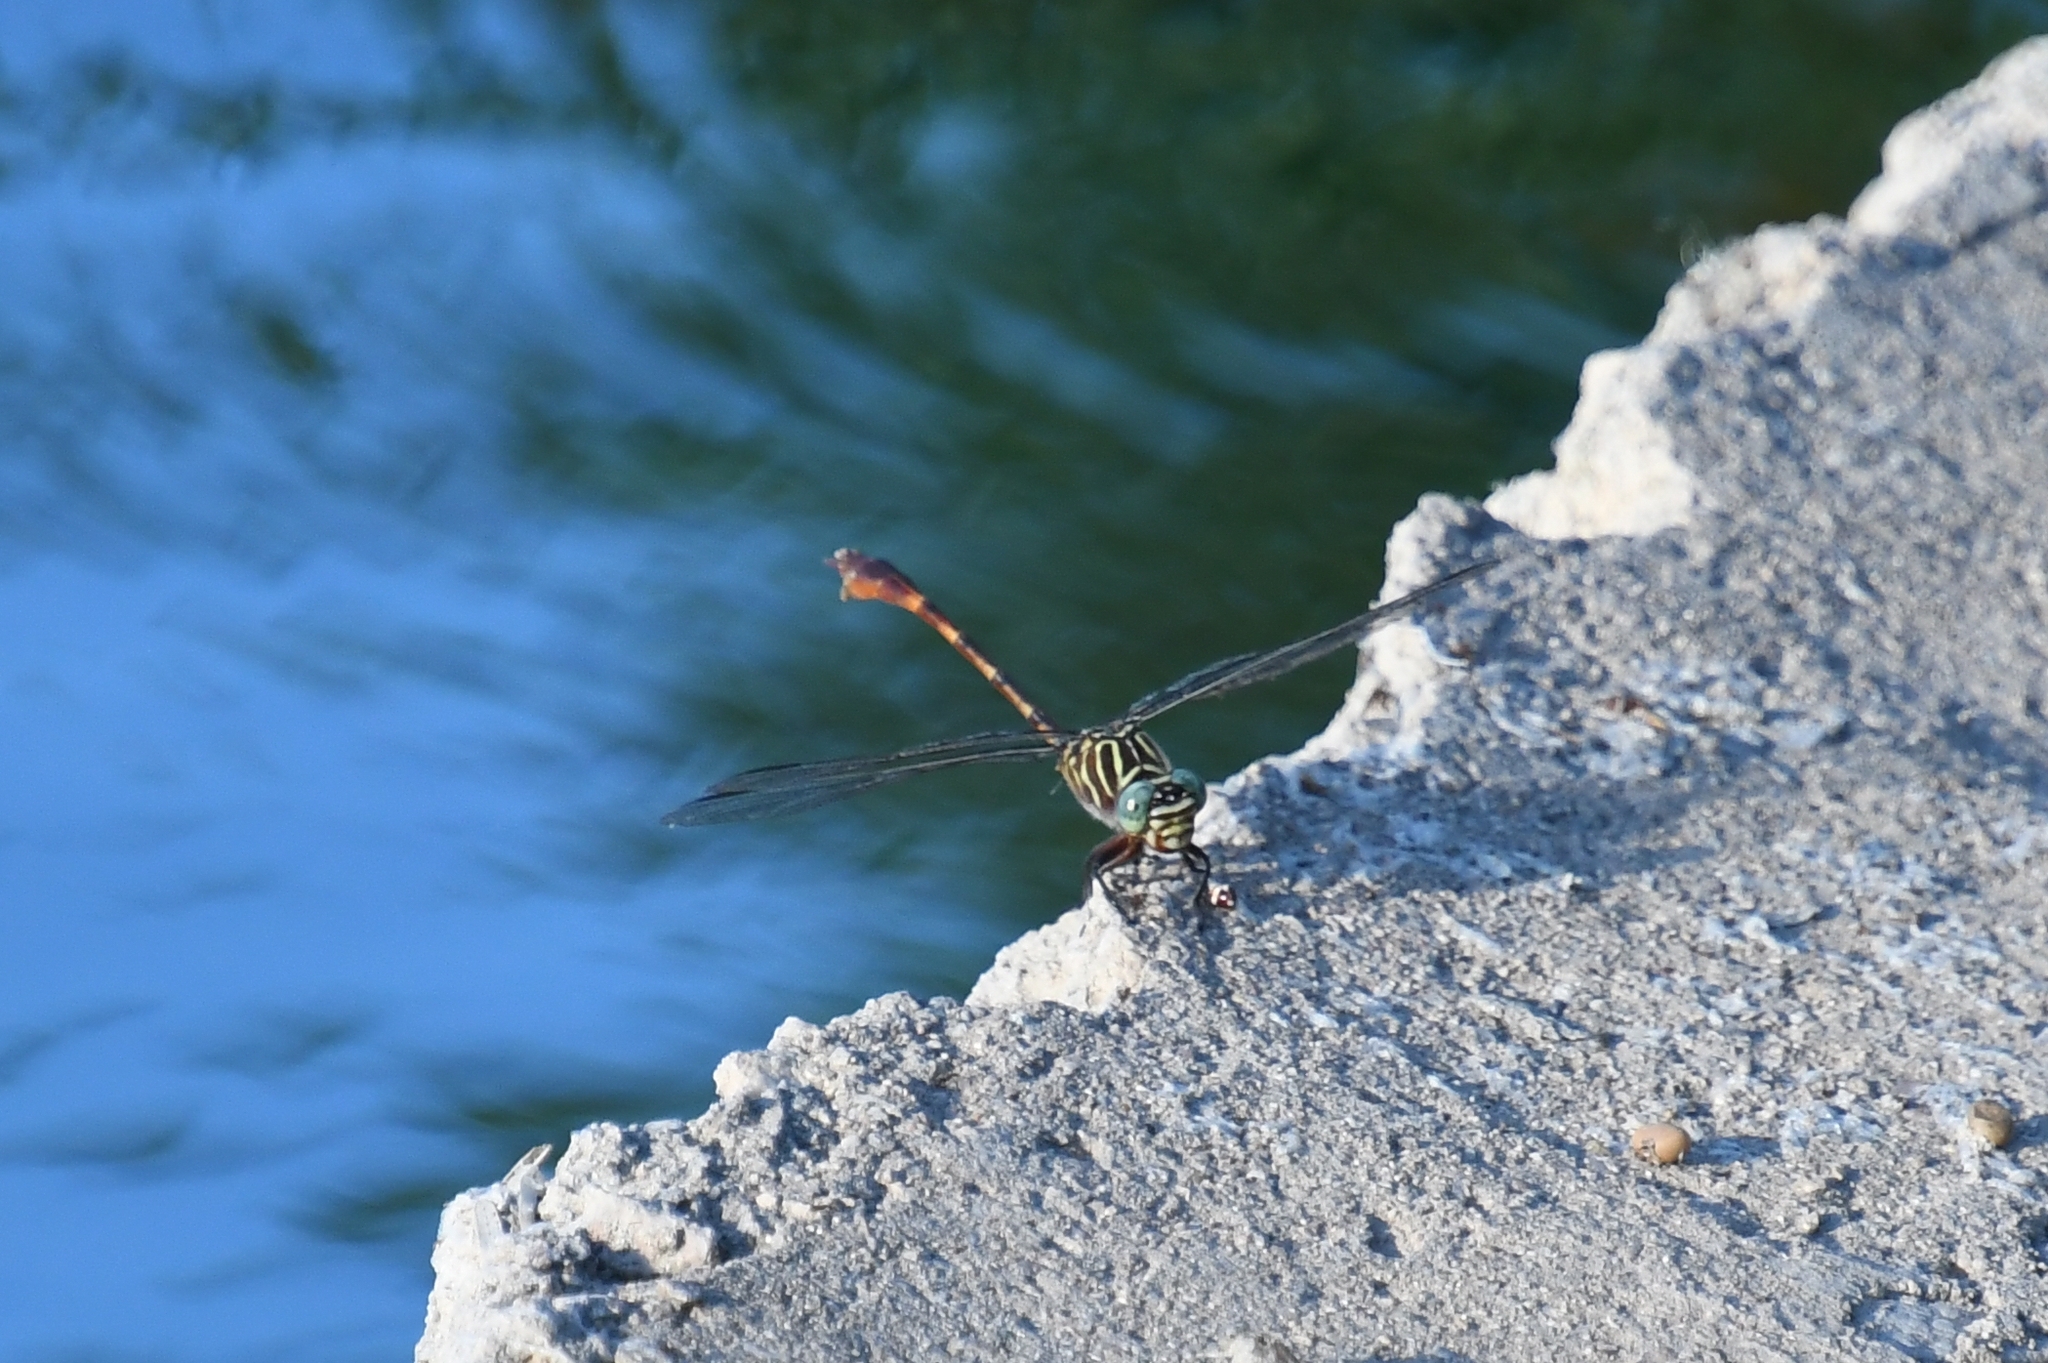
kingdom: Animalia
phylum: Arthropoda
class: Insecta
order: Odonata
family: Gomphidae
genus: Aphylla
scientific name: Aphylla protracta
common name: Narrow-striped forceptail
